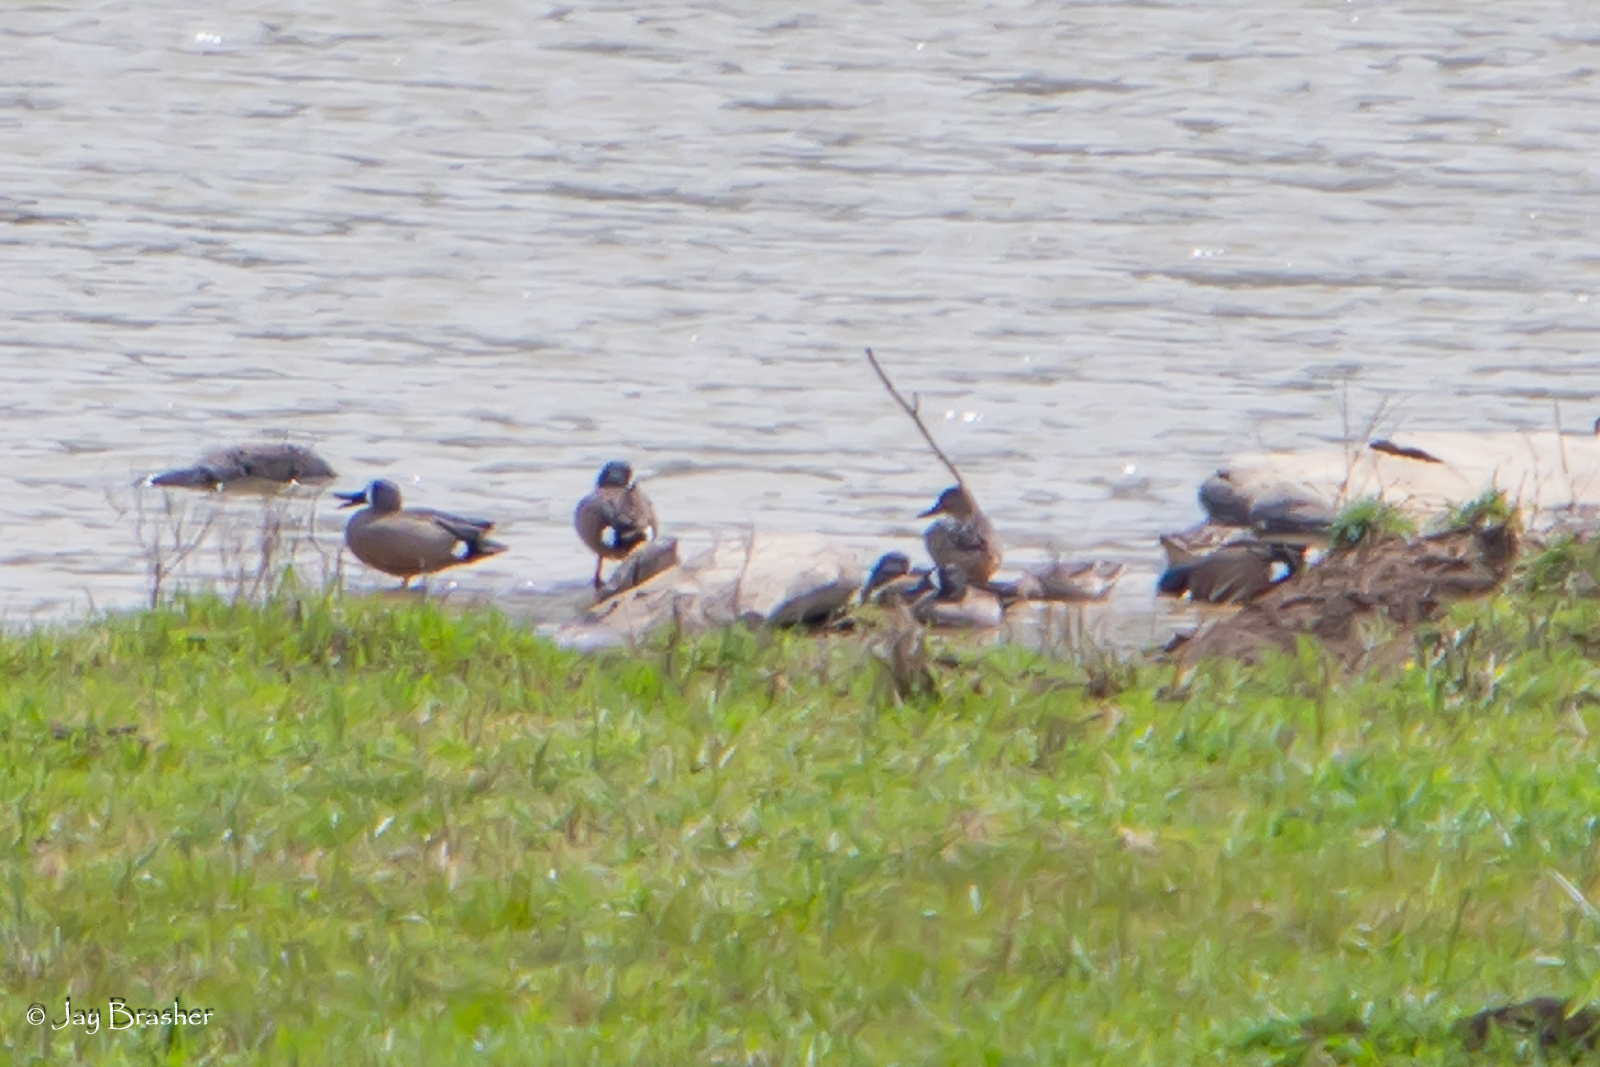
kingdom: Animalia
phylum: Chordata
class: Aves
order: Anseriformes
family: Anatidae
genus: Spatula
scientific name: Spatula discors
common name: Blue-winged teal
